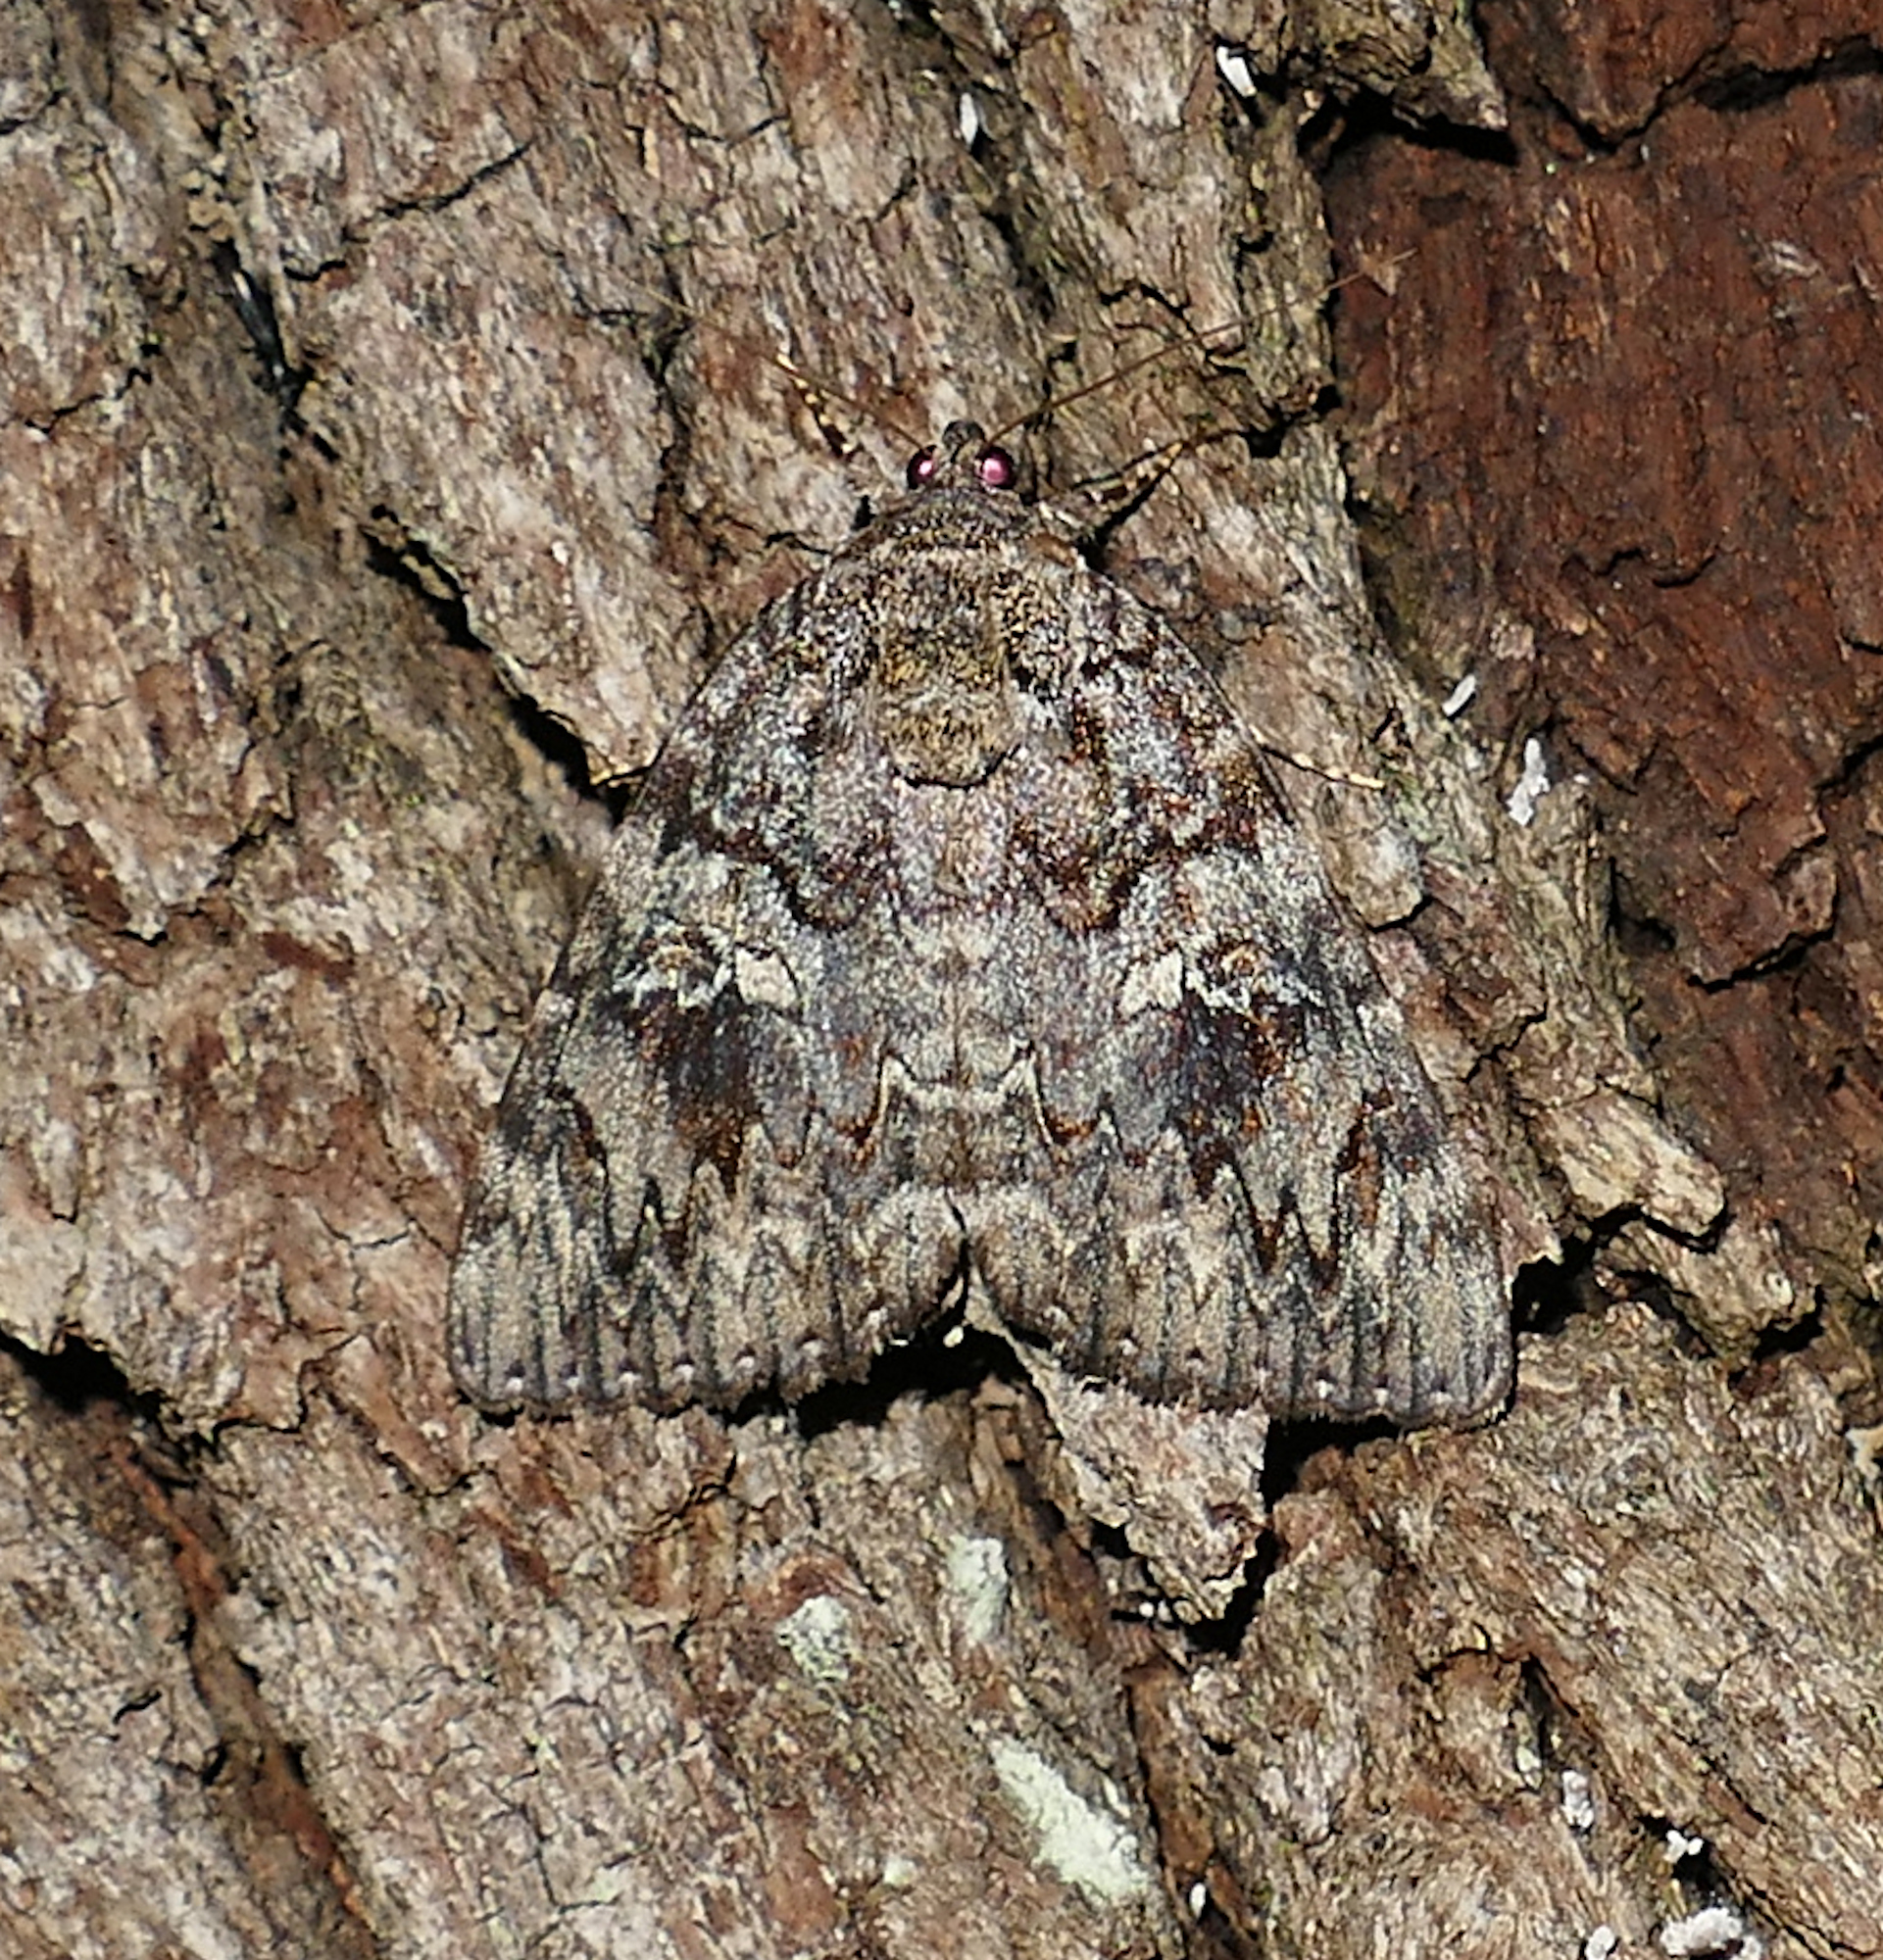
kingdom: Animalia
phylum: Arthropoda
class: Insecta
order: Lepidoptera
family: Erebidae
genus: Catocala
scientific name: Catocala ilia
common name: Ilia underwing
